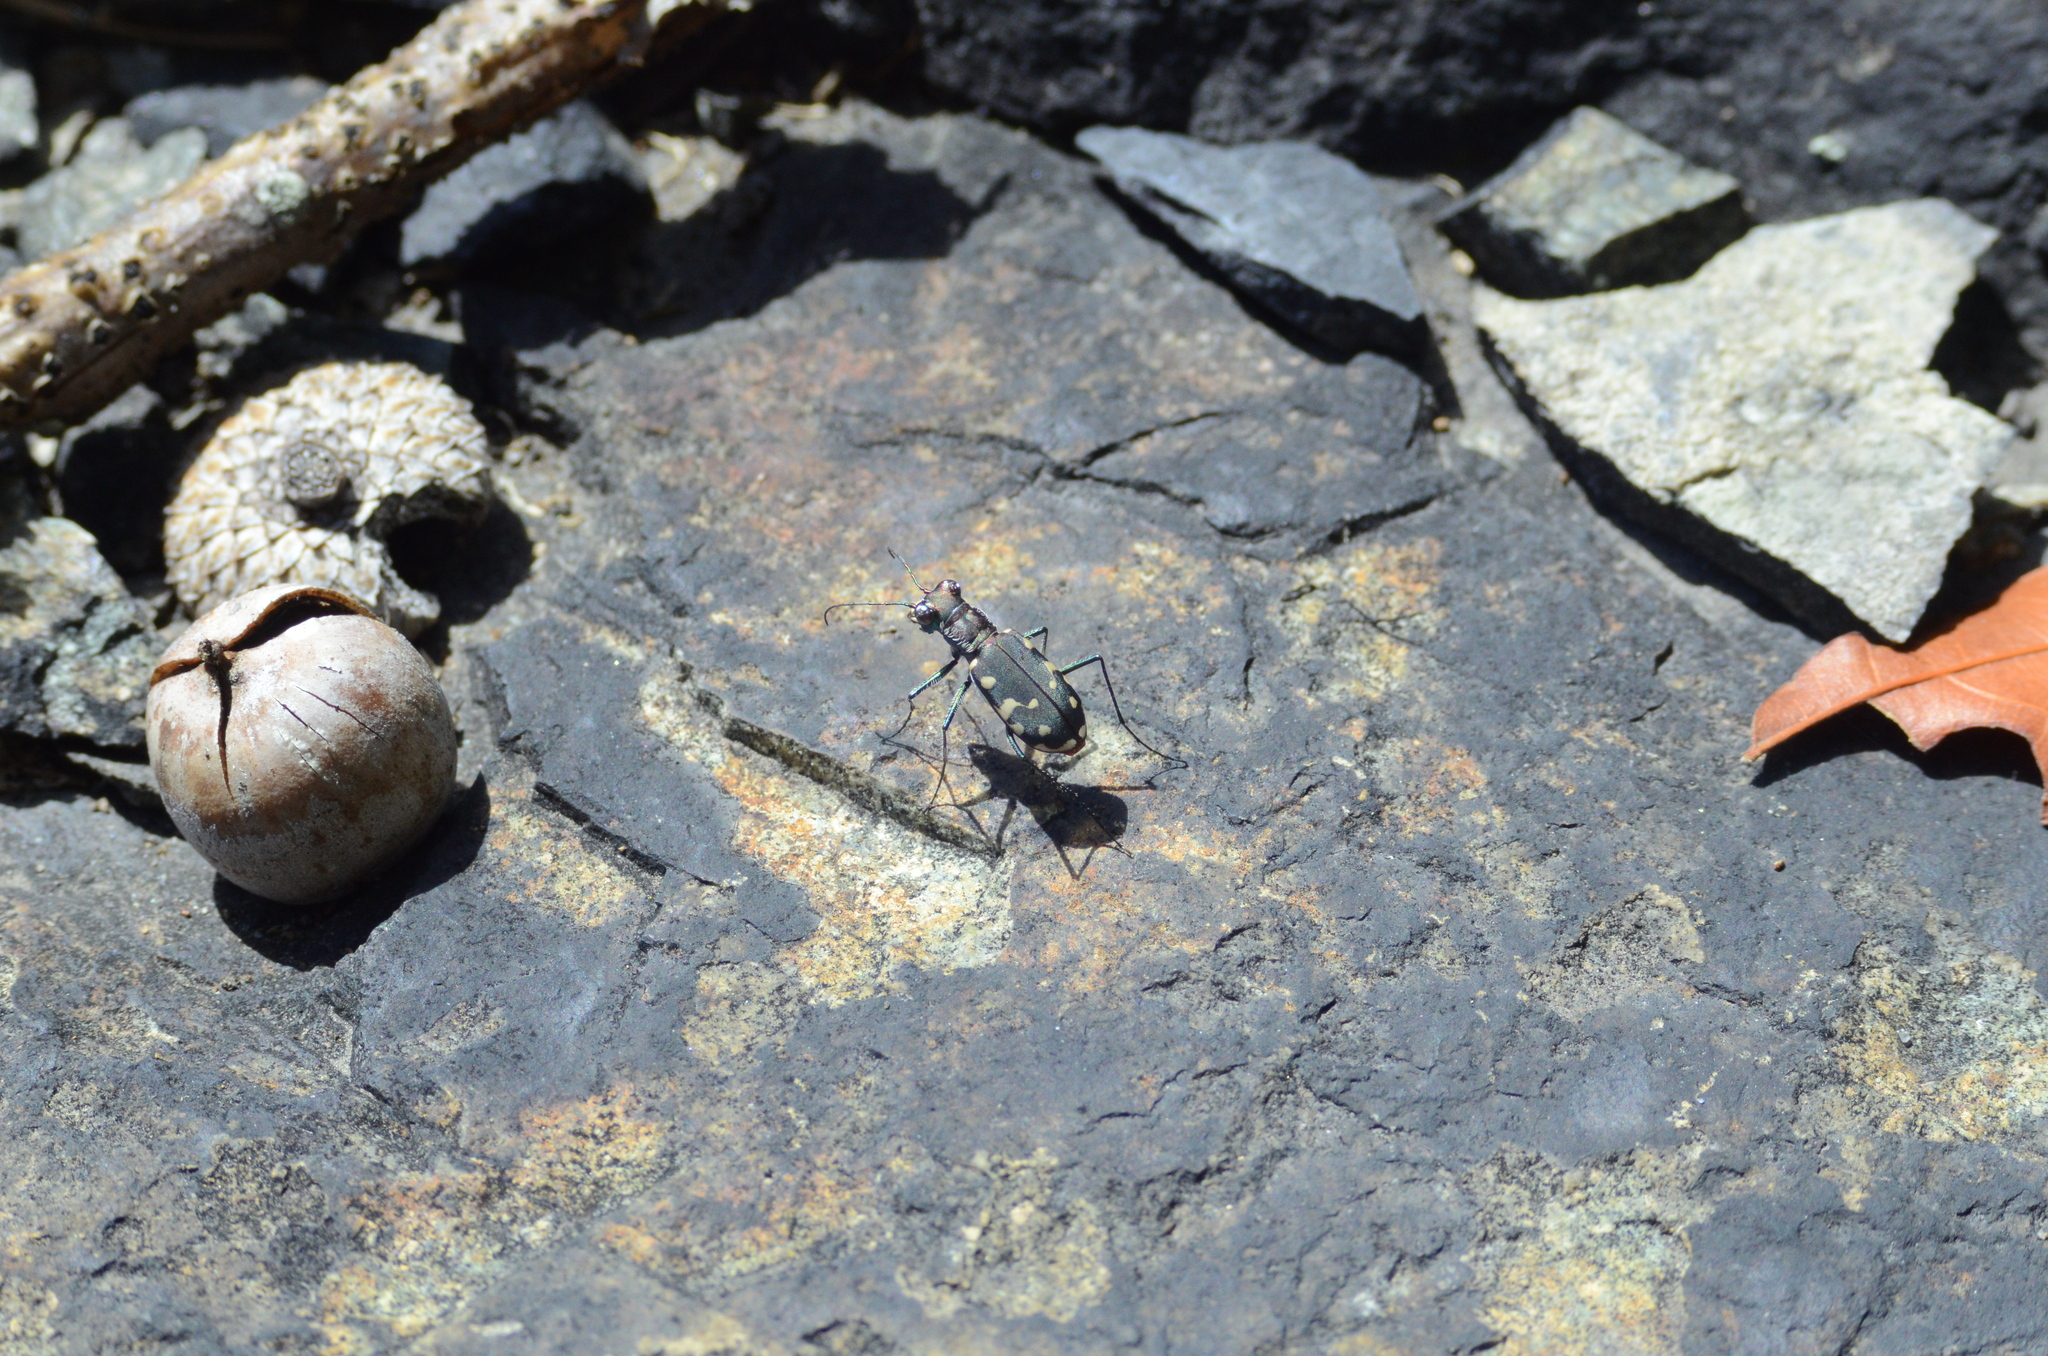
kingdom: Animalia
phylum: Arthropoda
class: Insecta
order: Coleoptera
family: Carabidae
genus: Cicindela
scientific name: Cicindela rufiventris
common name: Eastern red-bellied tiger beetle
